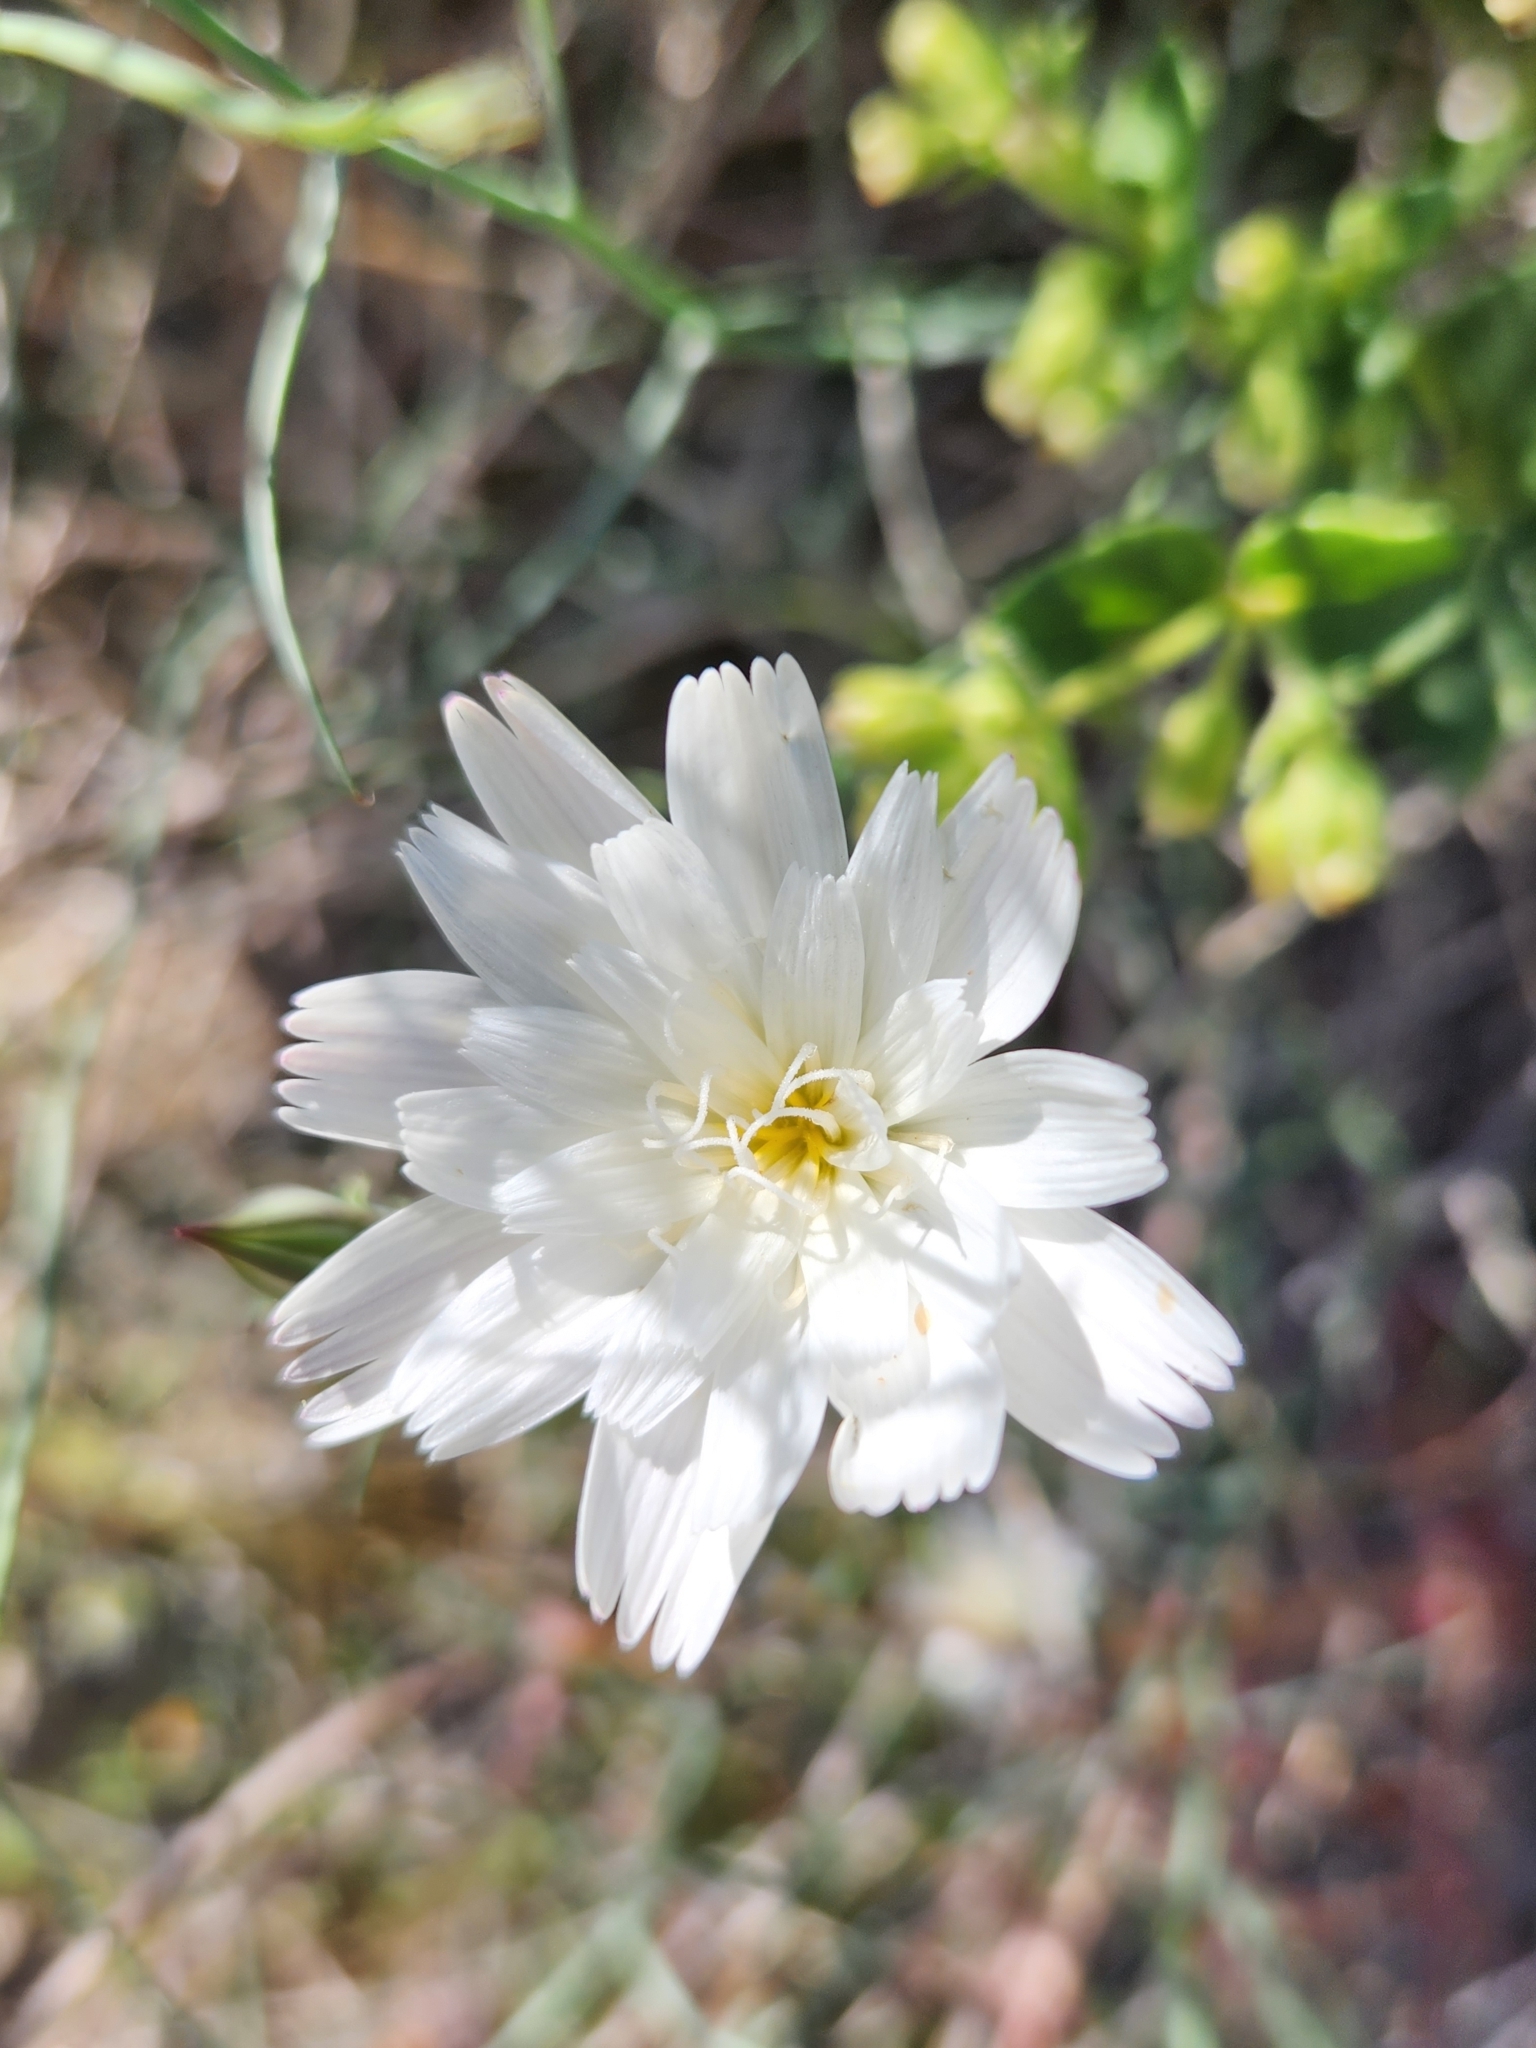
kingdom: Plantae
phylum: Tracheophyta
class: Magnoliopsida
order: Asterales
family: Asteraceae
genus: Rafinesquia
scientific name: Rafinesquia neomexicana
